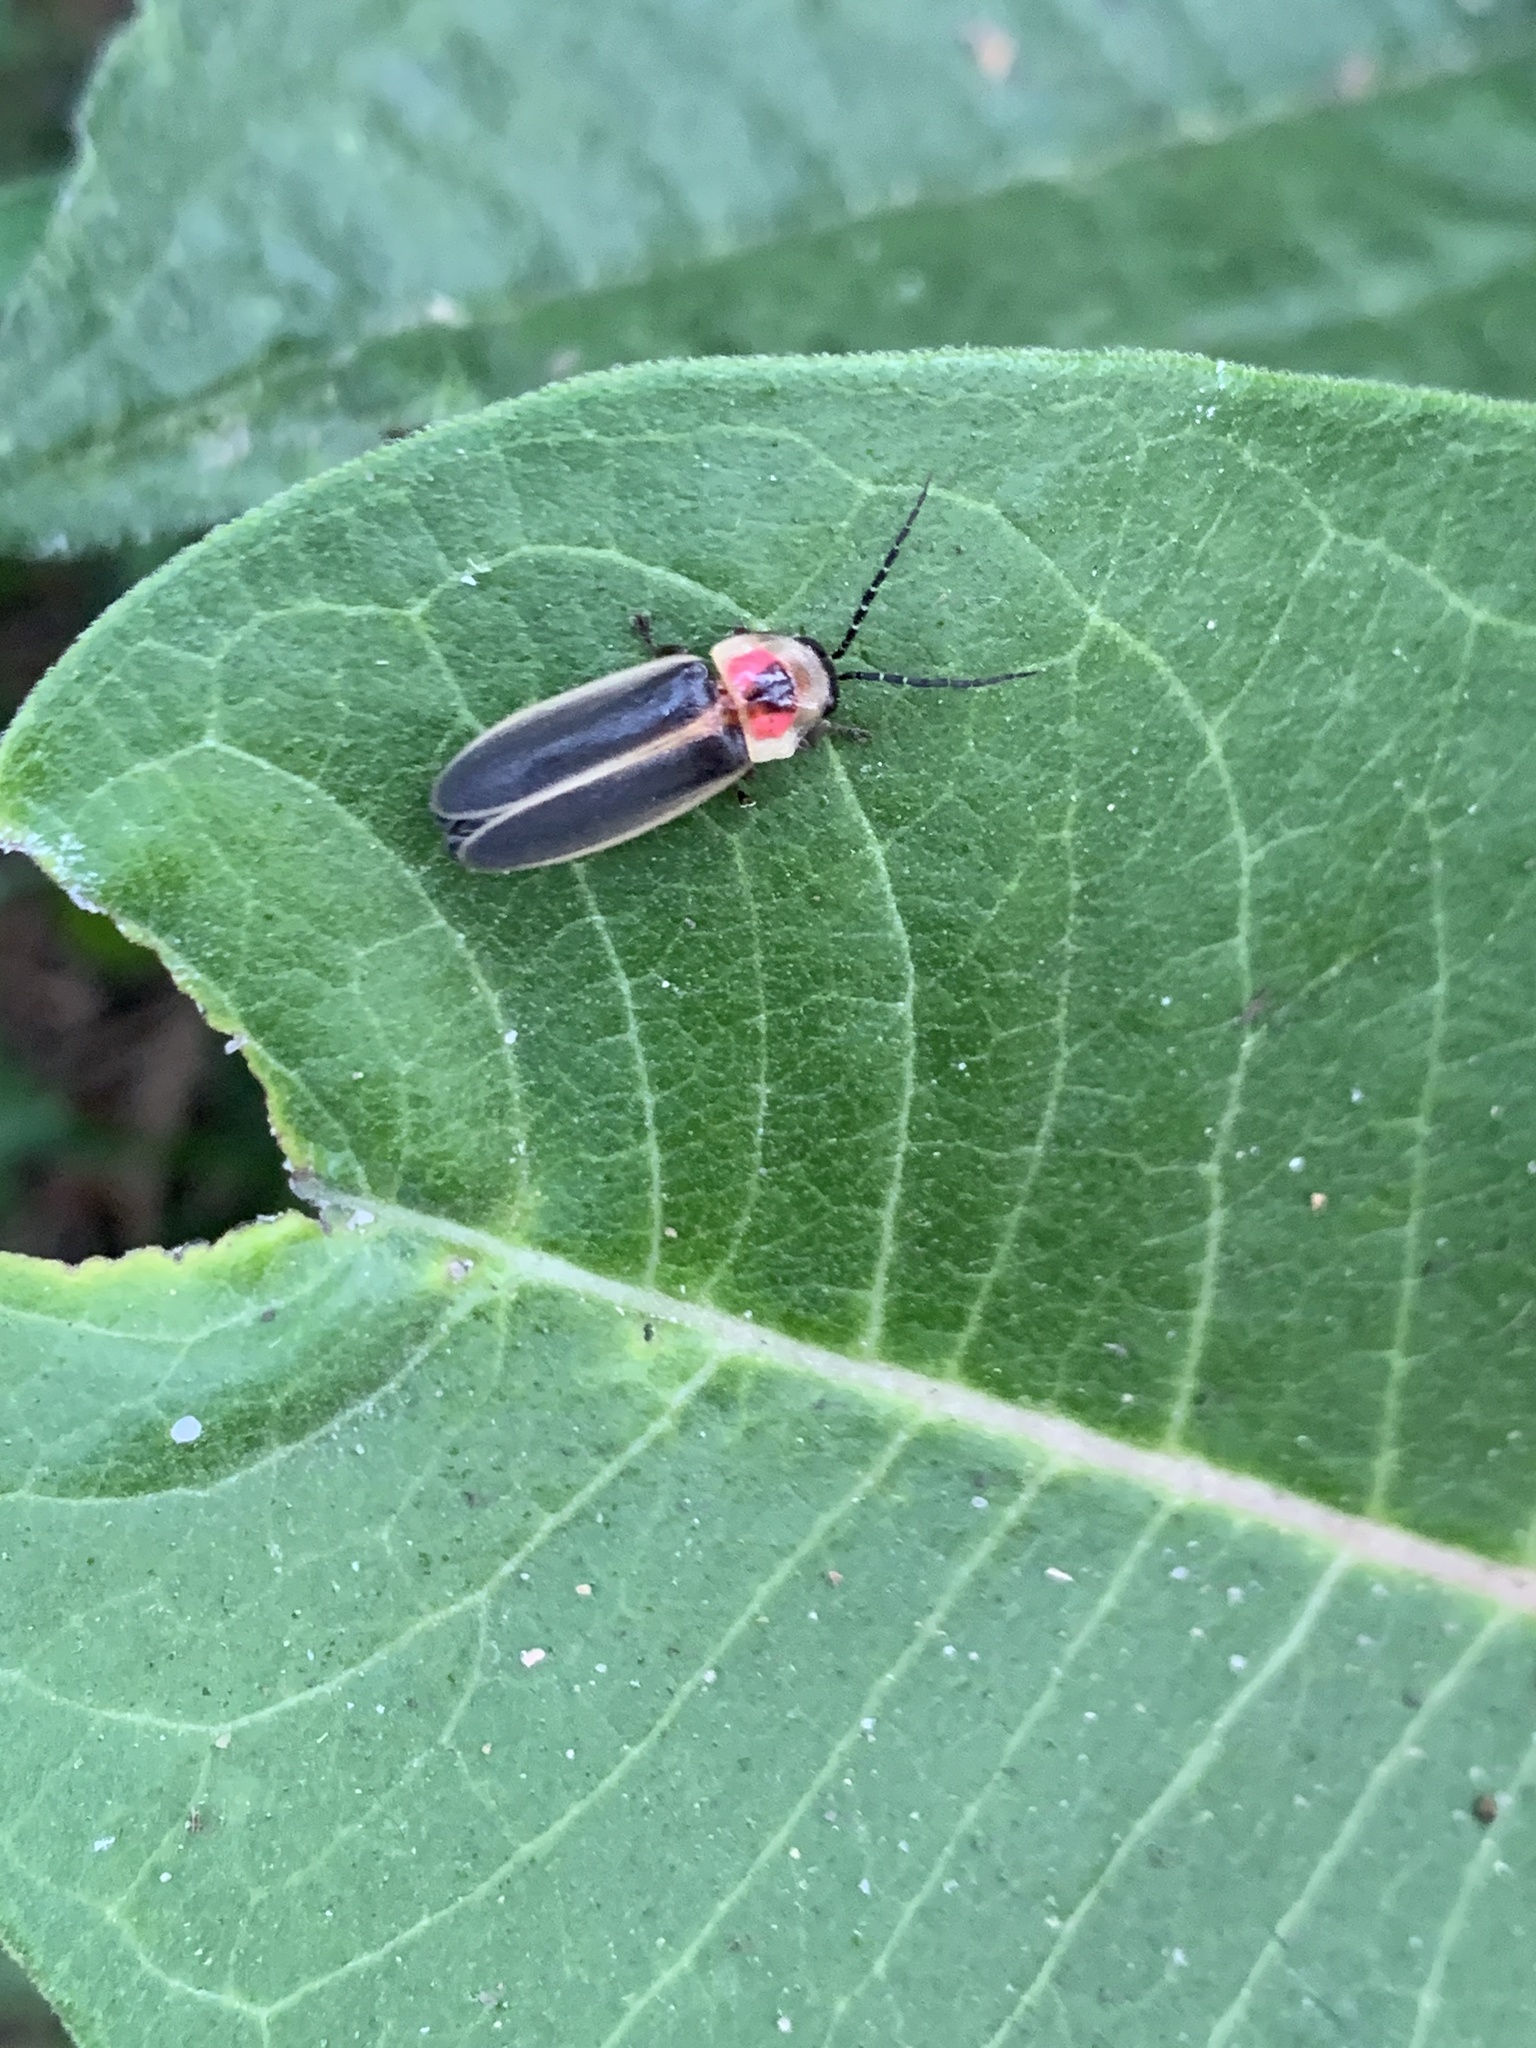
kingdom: Animalia
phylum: Arthropoda
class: Insecta
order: Coleoptera
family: Lampyridae
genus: Photinus
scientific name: Photinus pyralis
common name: Big dipper firefly
